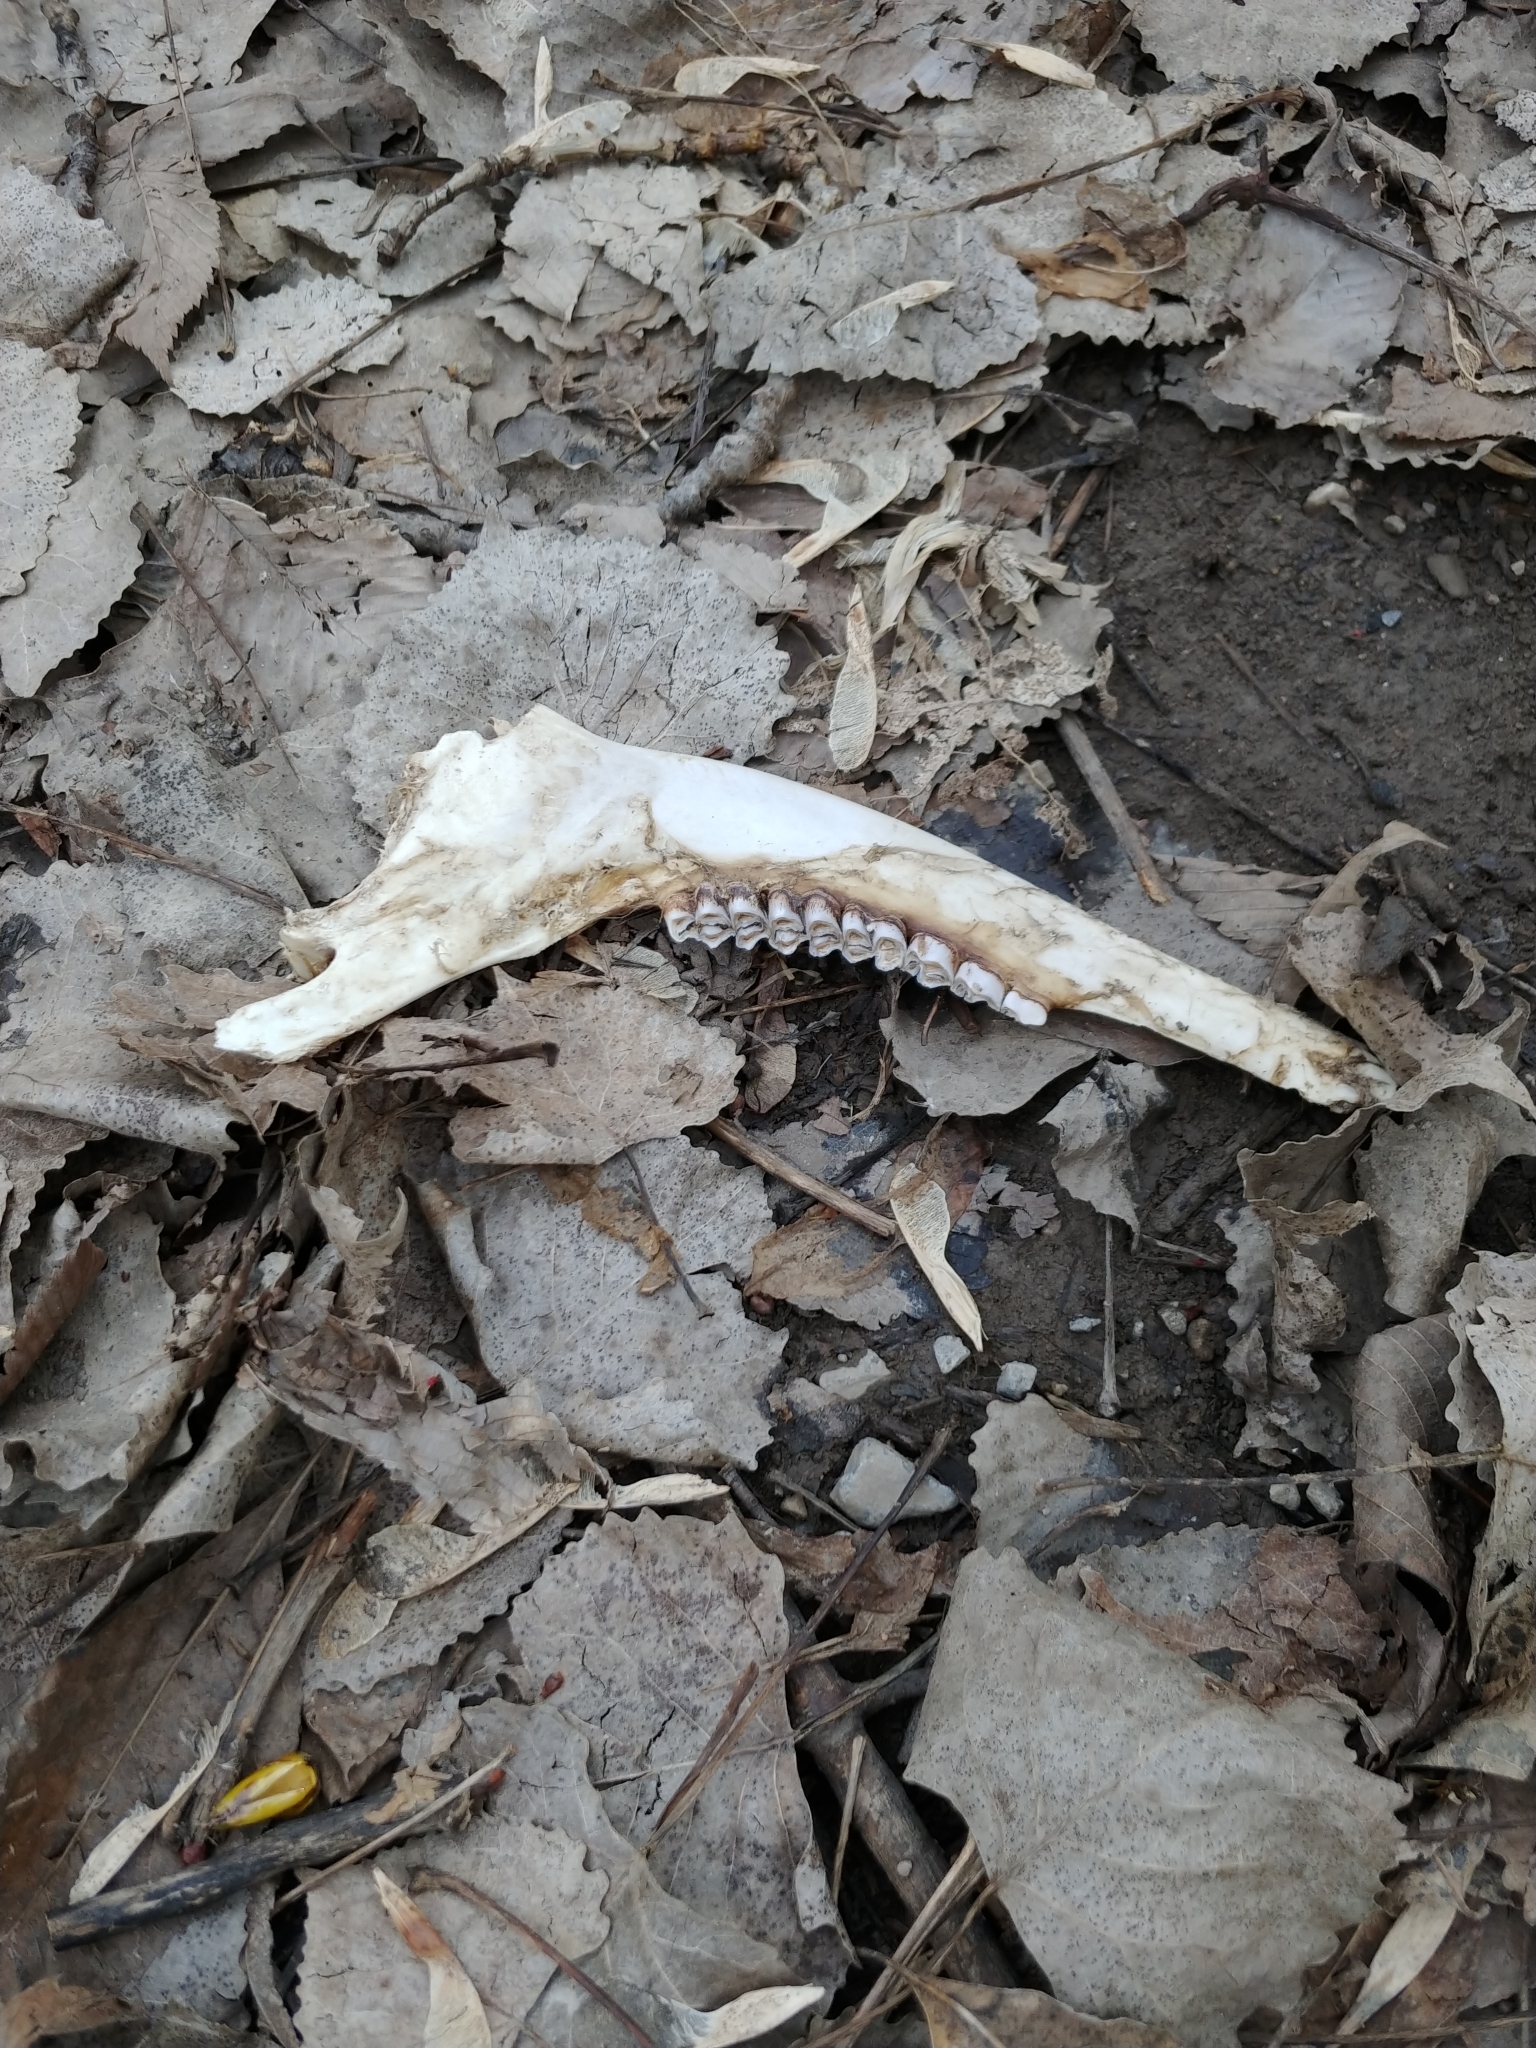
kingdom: Animalia
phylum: Chordata
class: Mammalia
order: Artiodactyla
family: Cervidae
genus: Odocoileus
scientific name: Odocoileus virginianus
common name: White-tailed deer
